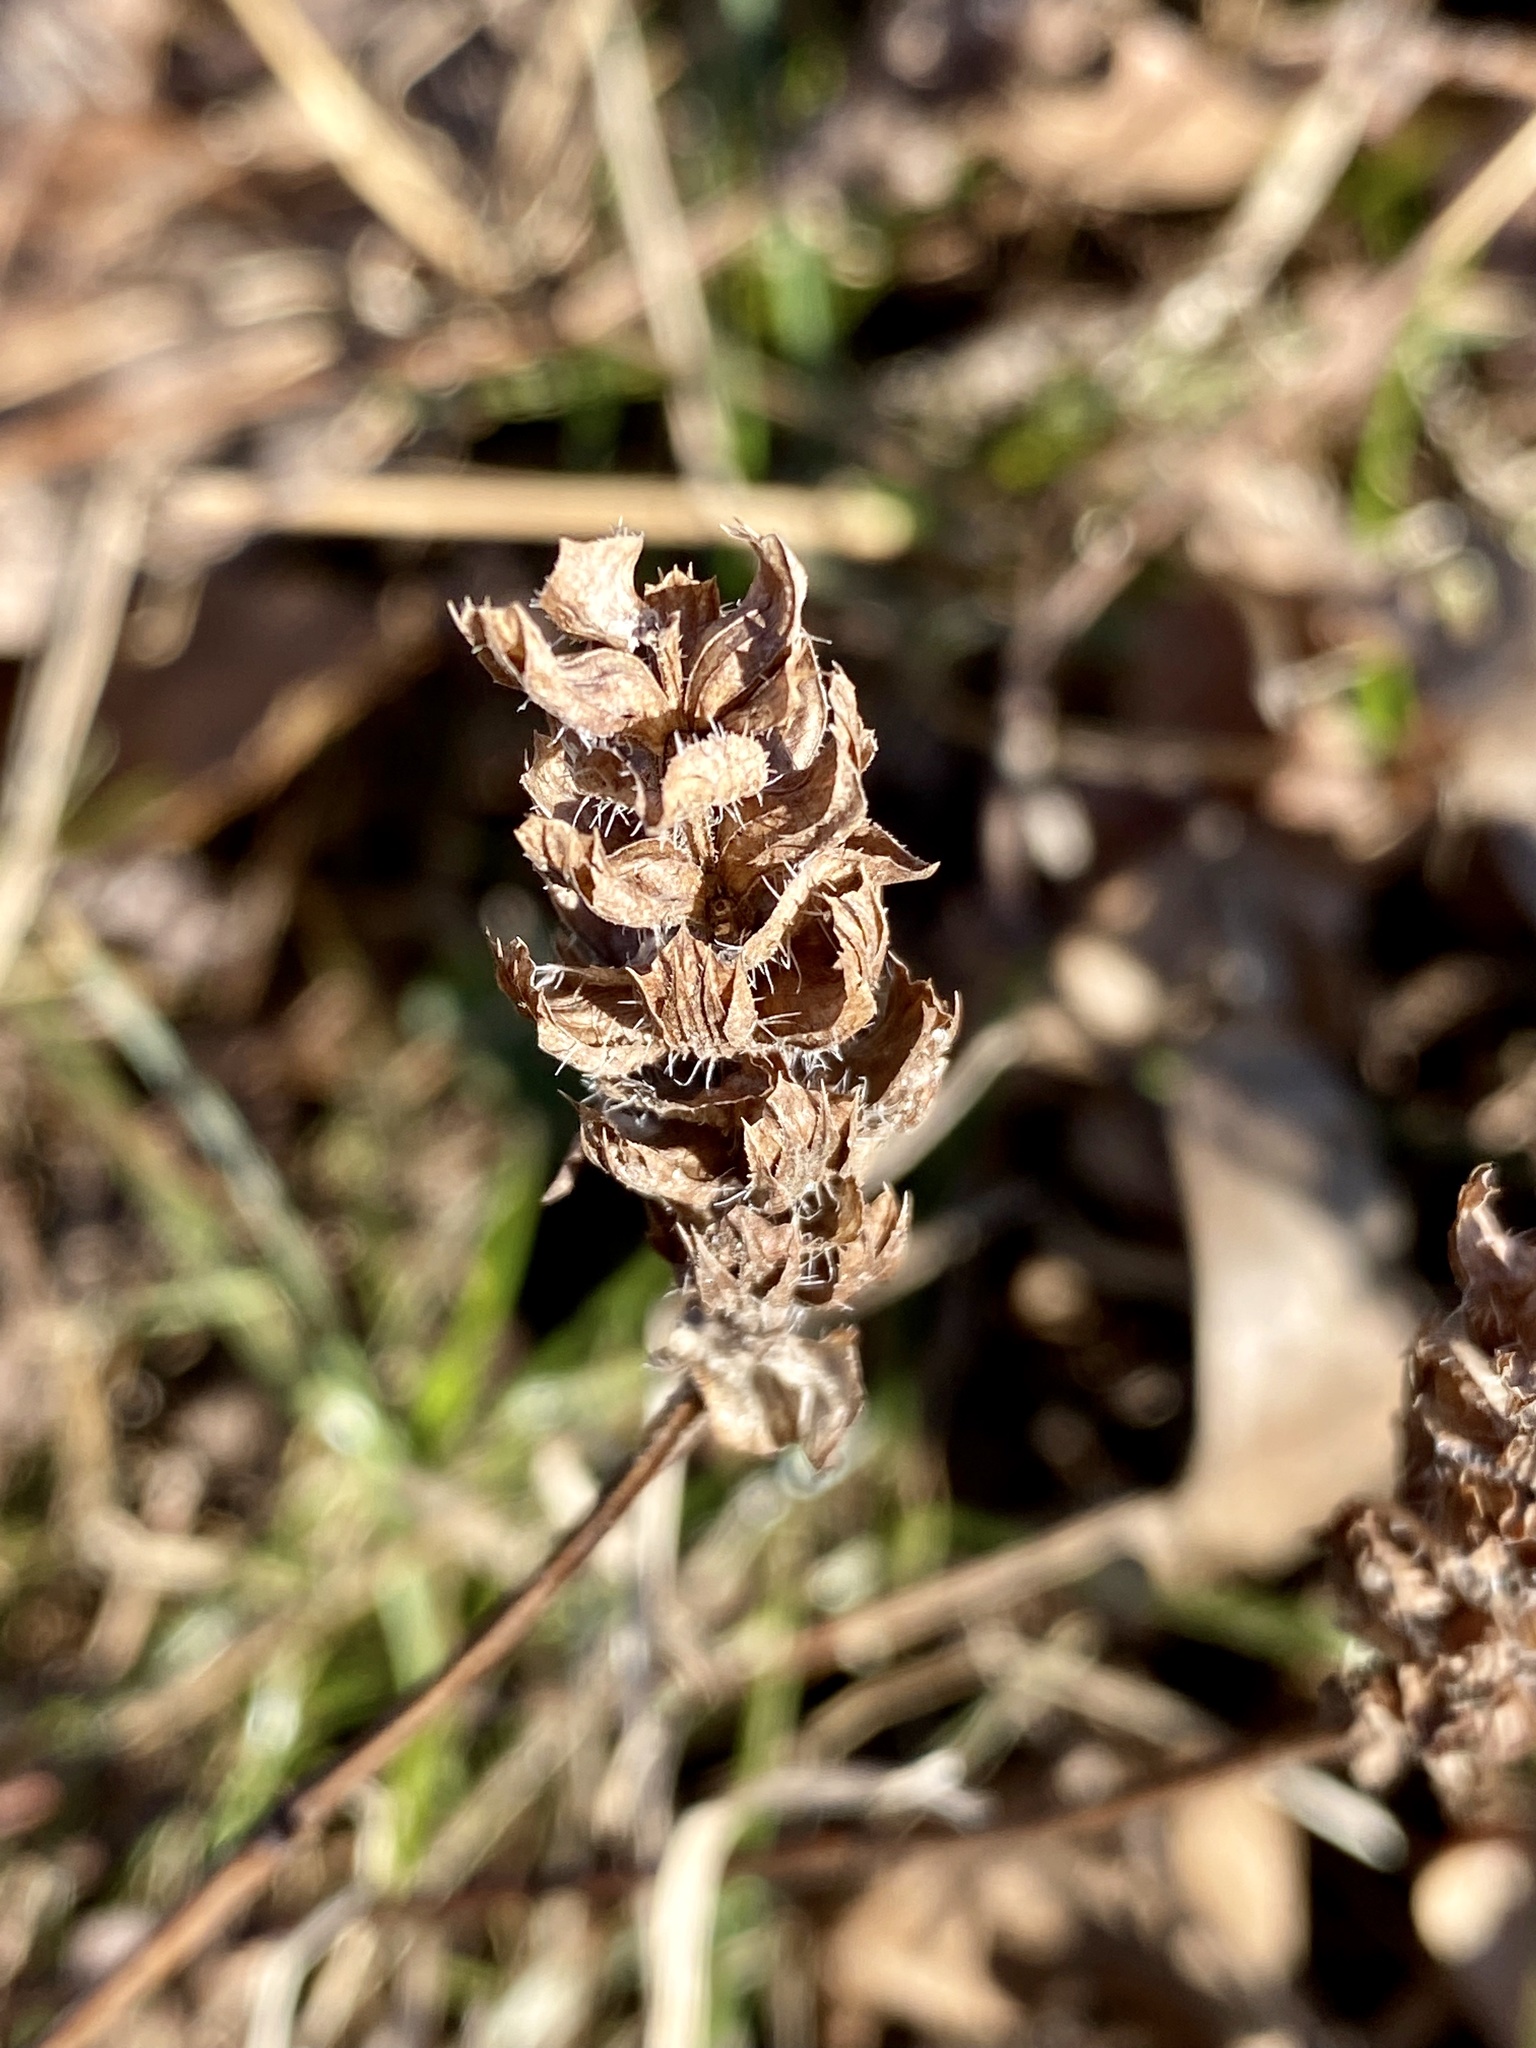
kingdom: Plantae
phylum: Tracheophyta
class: Magnoliopsida
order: Lamiales
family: Lamiaceae
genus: Prunella
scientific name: Prunella vulgaris
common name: Heal-all
